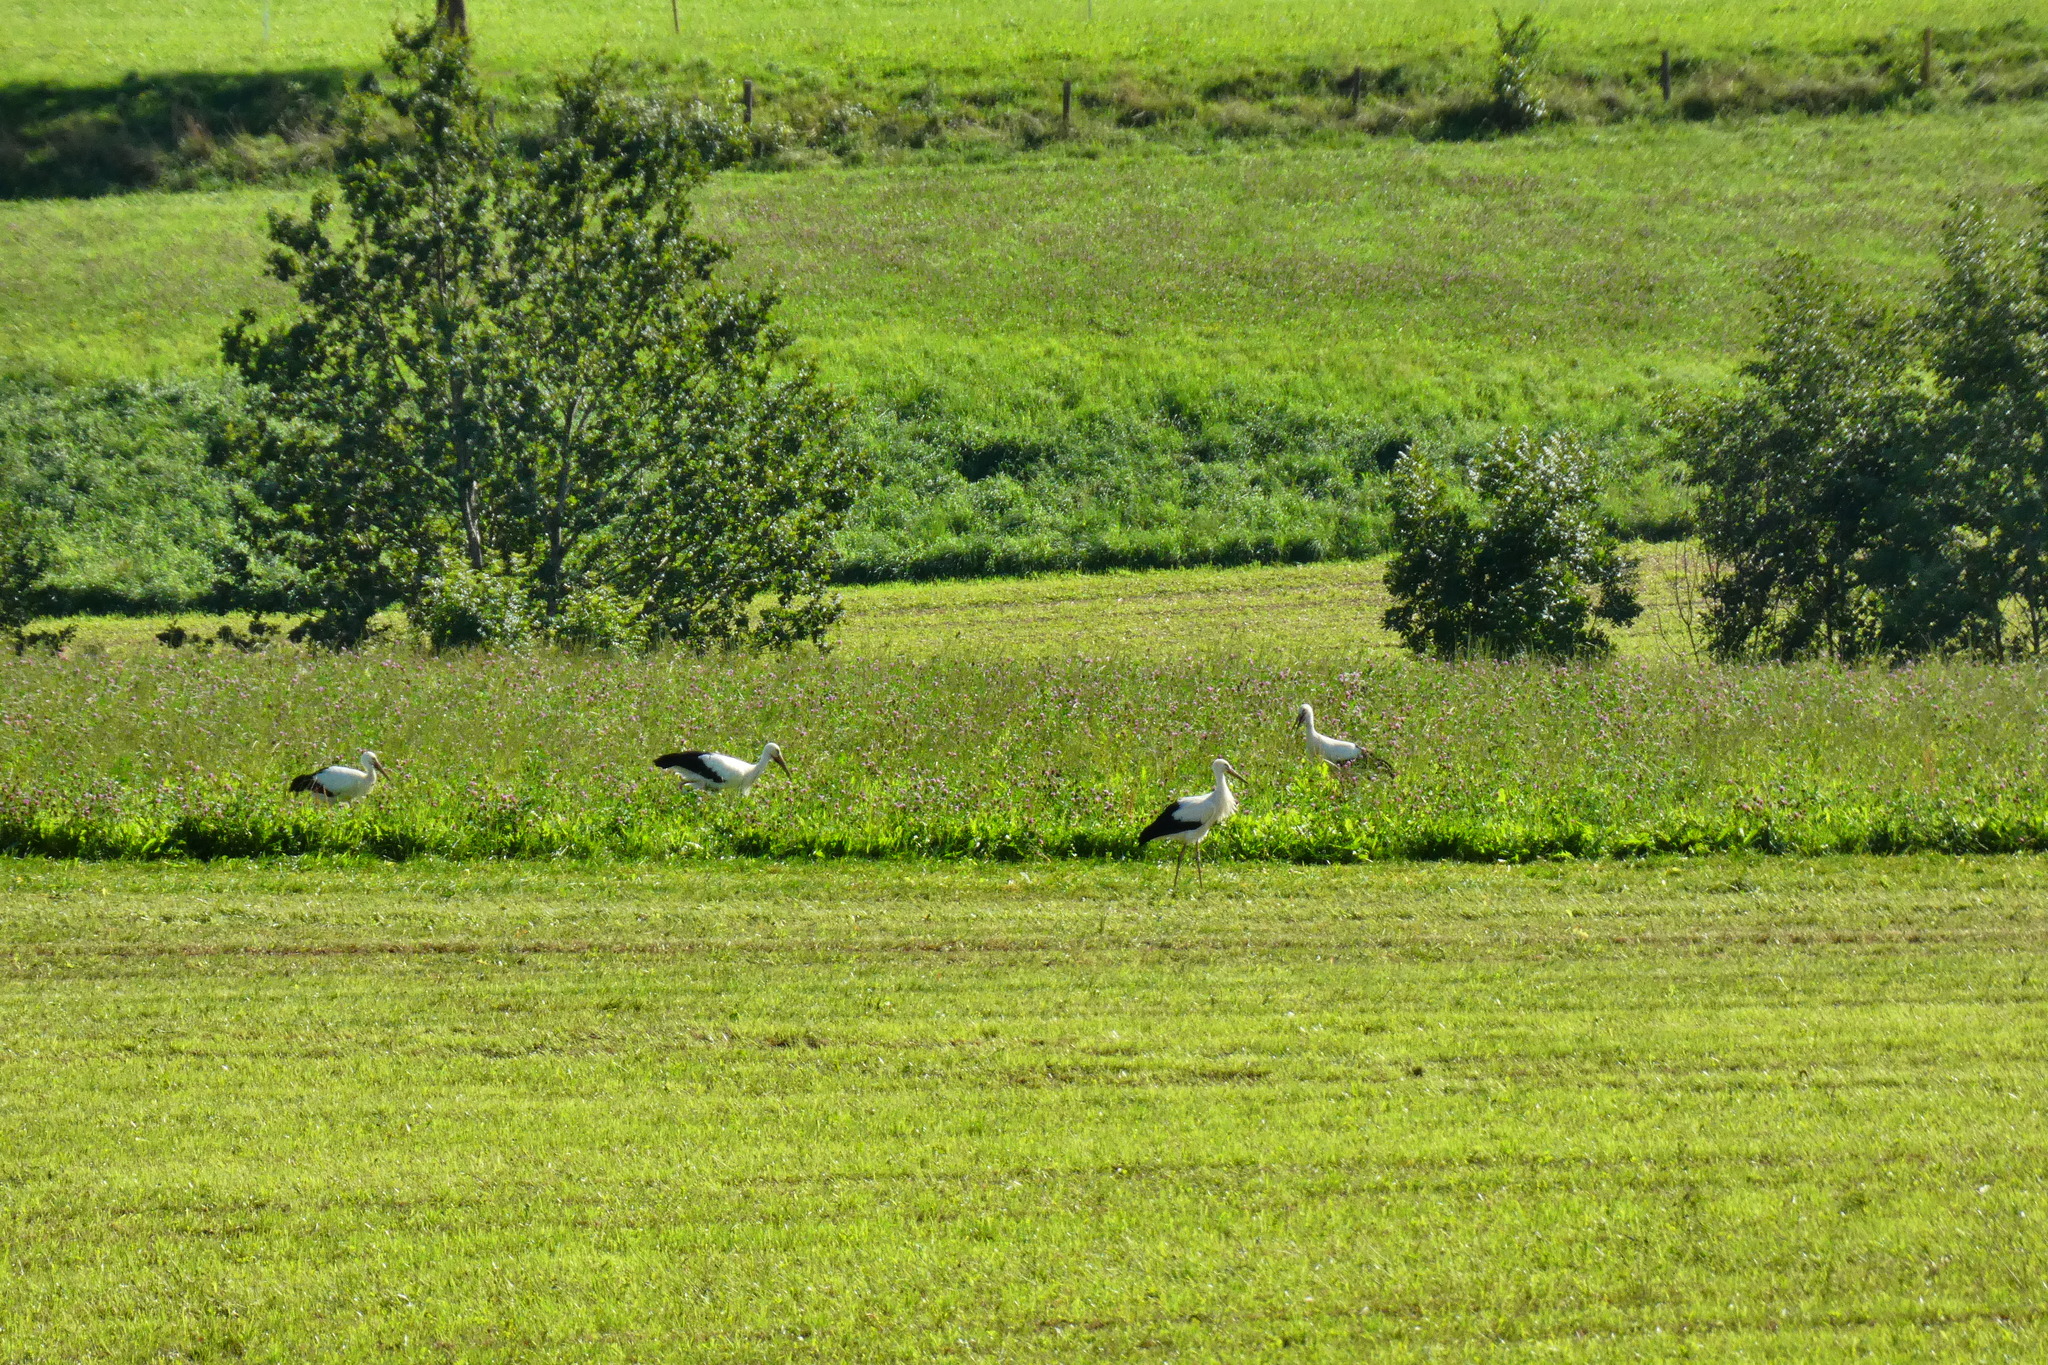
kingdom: Animalia
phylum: Chordata
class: Aves
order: Ciconiiformes
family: Ciconiidae
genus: Ciconia
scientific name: Ciconia ciconia
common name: White stork
